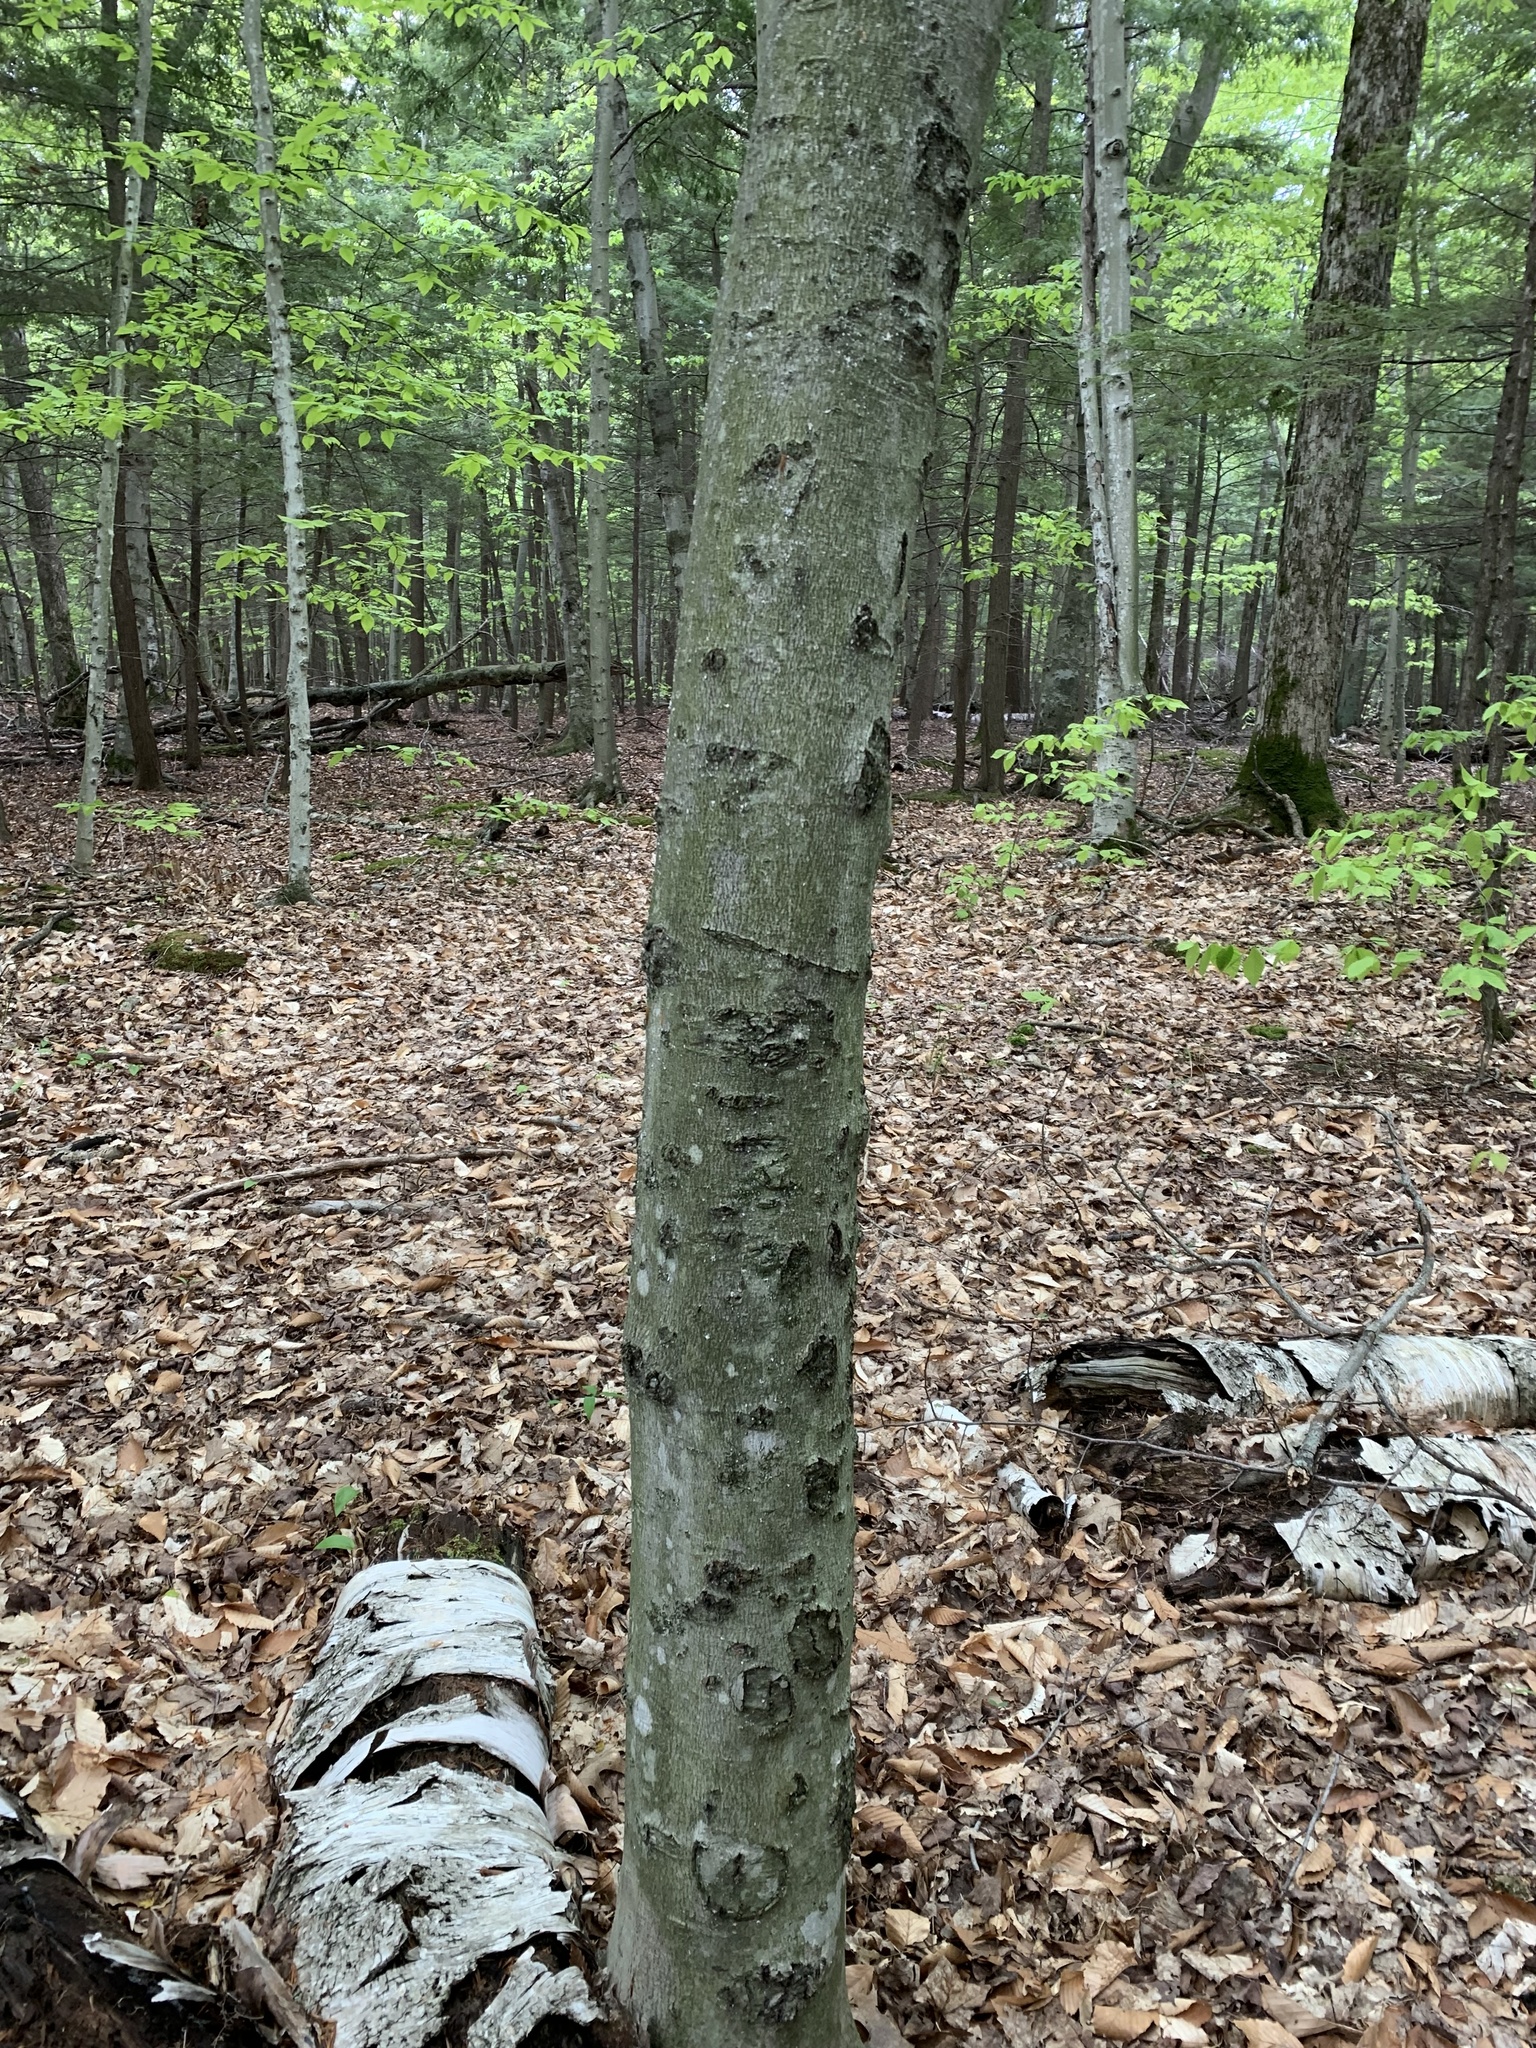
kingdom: Plantae
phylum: Tracheophyta
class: Magnoliopsida
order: Fagales
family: Fagaceae
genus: Fagus
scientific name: Fagus grandifolia
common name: American beech
